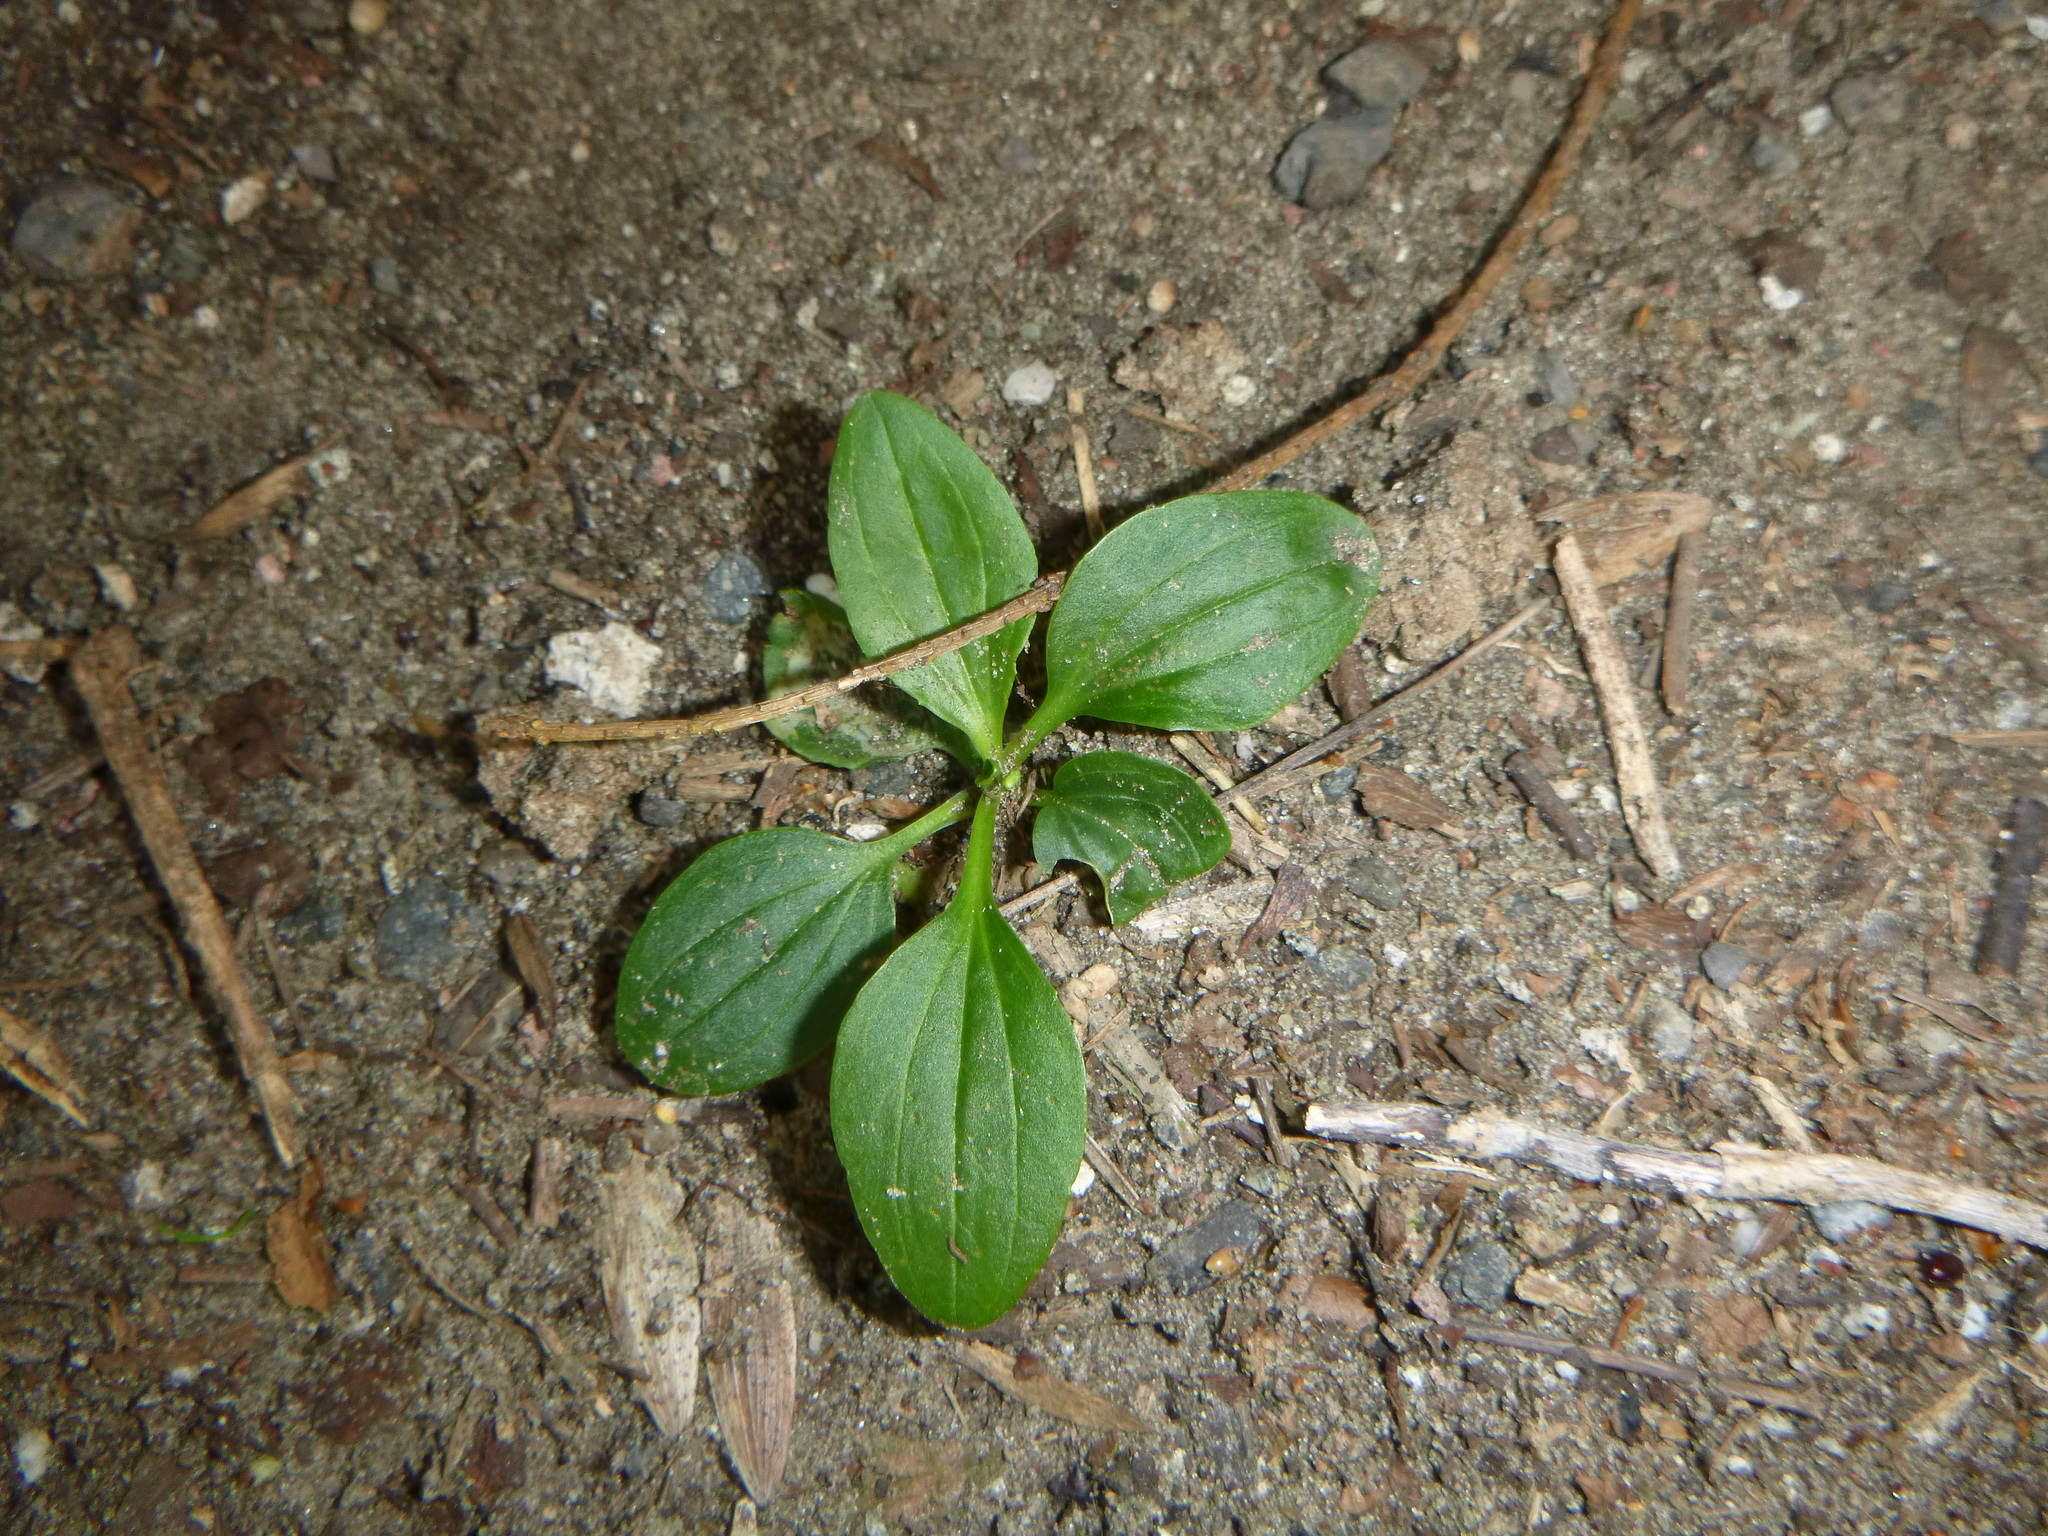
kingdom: Plantae
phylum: Tracheophyta
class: Magnoliopsida
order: Lamiales
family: Plantaginaceae
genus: Plantago
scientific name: Plantago major
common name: Common plantain
